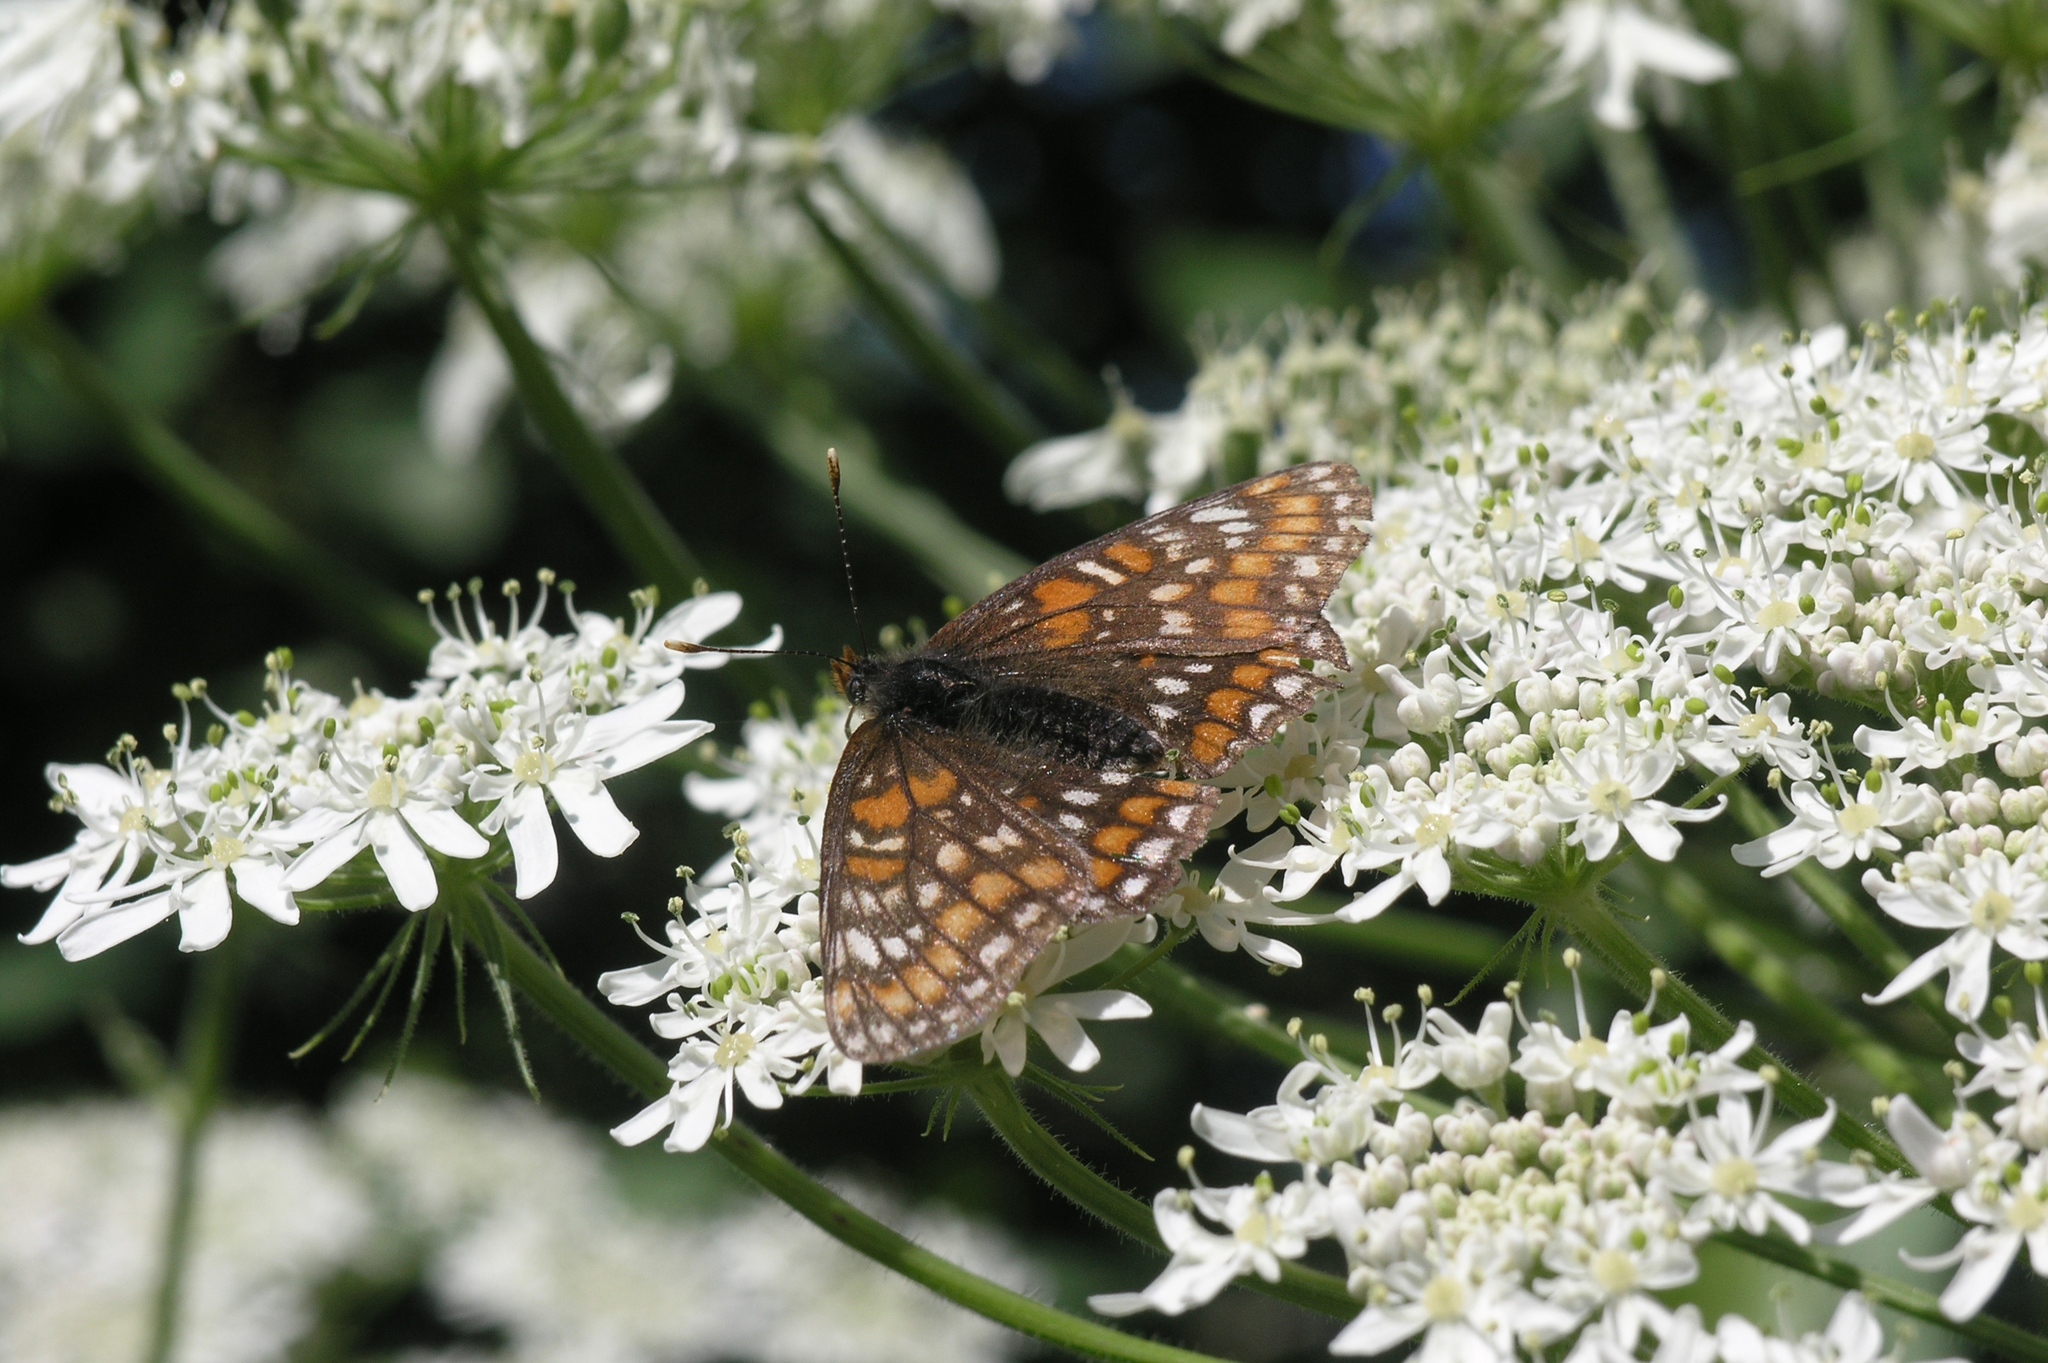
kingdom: Animalia
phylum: Arthropoda
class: Insecta
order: Lepidoptera
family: Nymphalidae
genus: Euphydryas
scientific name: Euphydryas maturna
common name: Scarce fritillary
